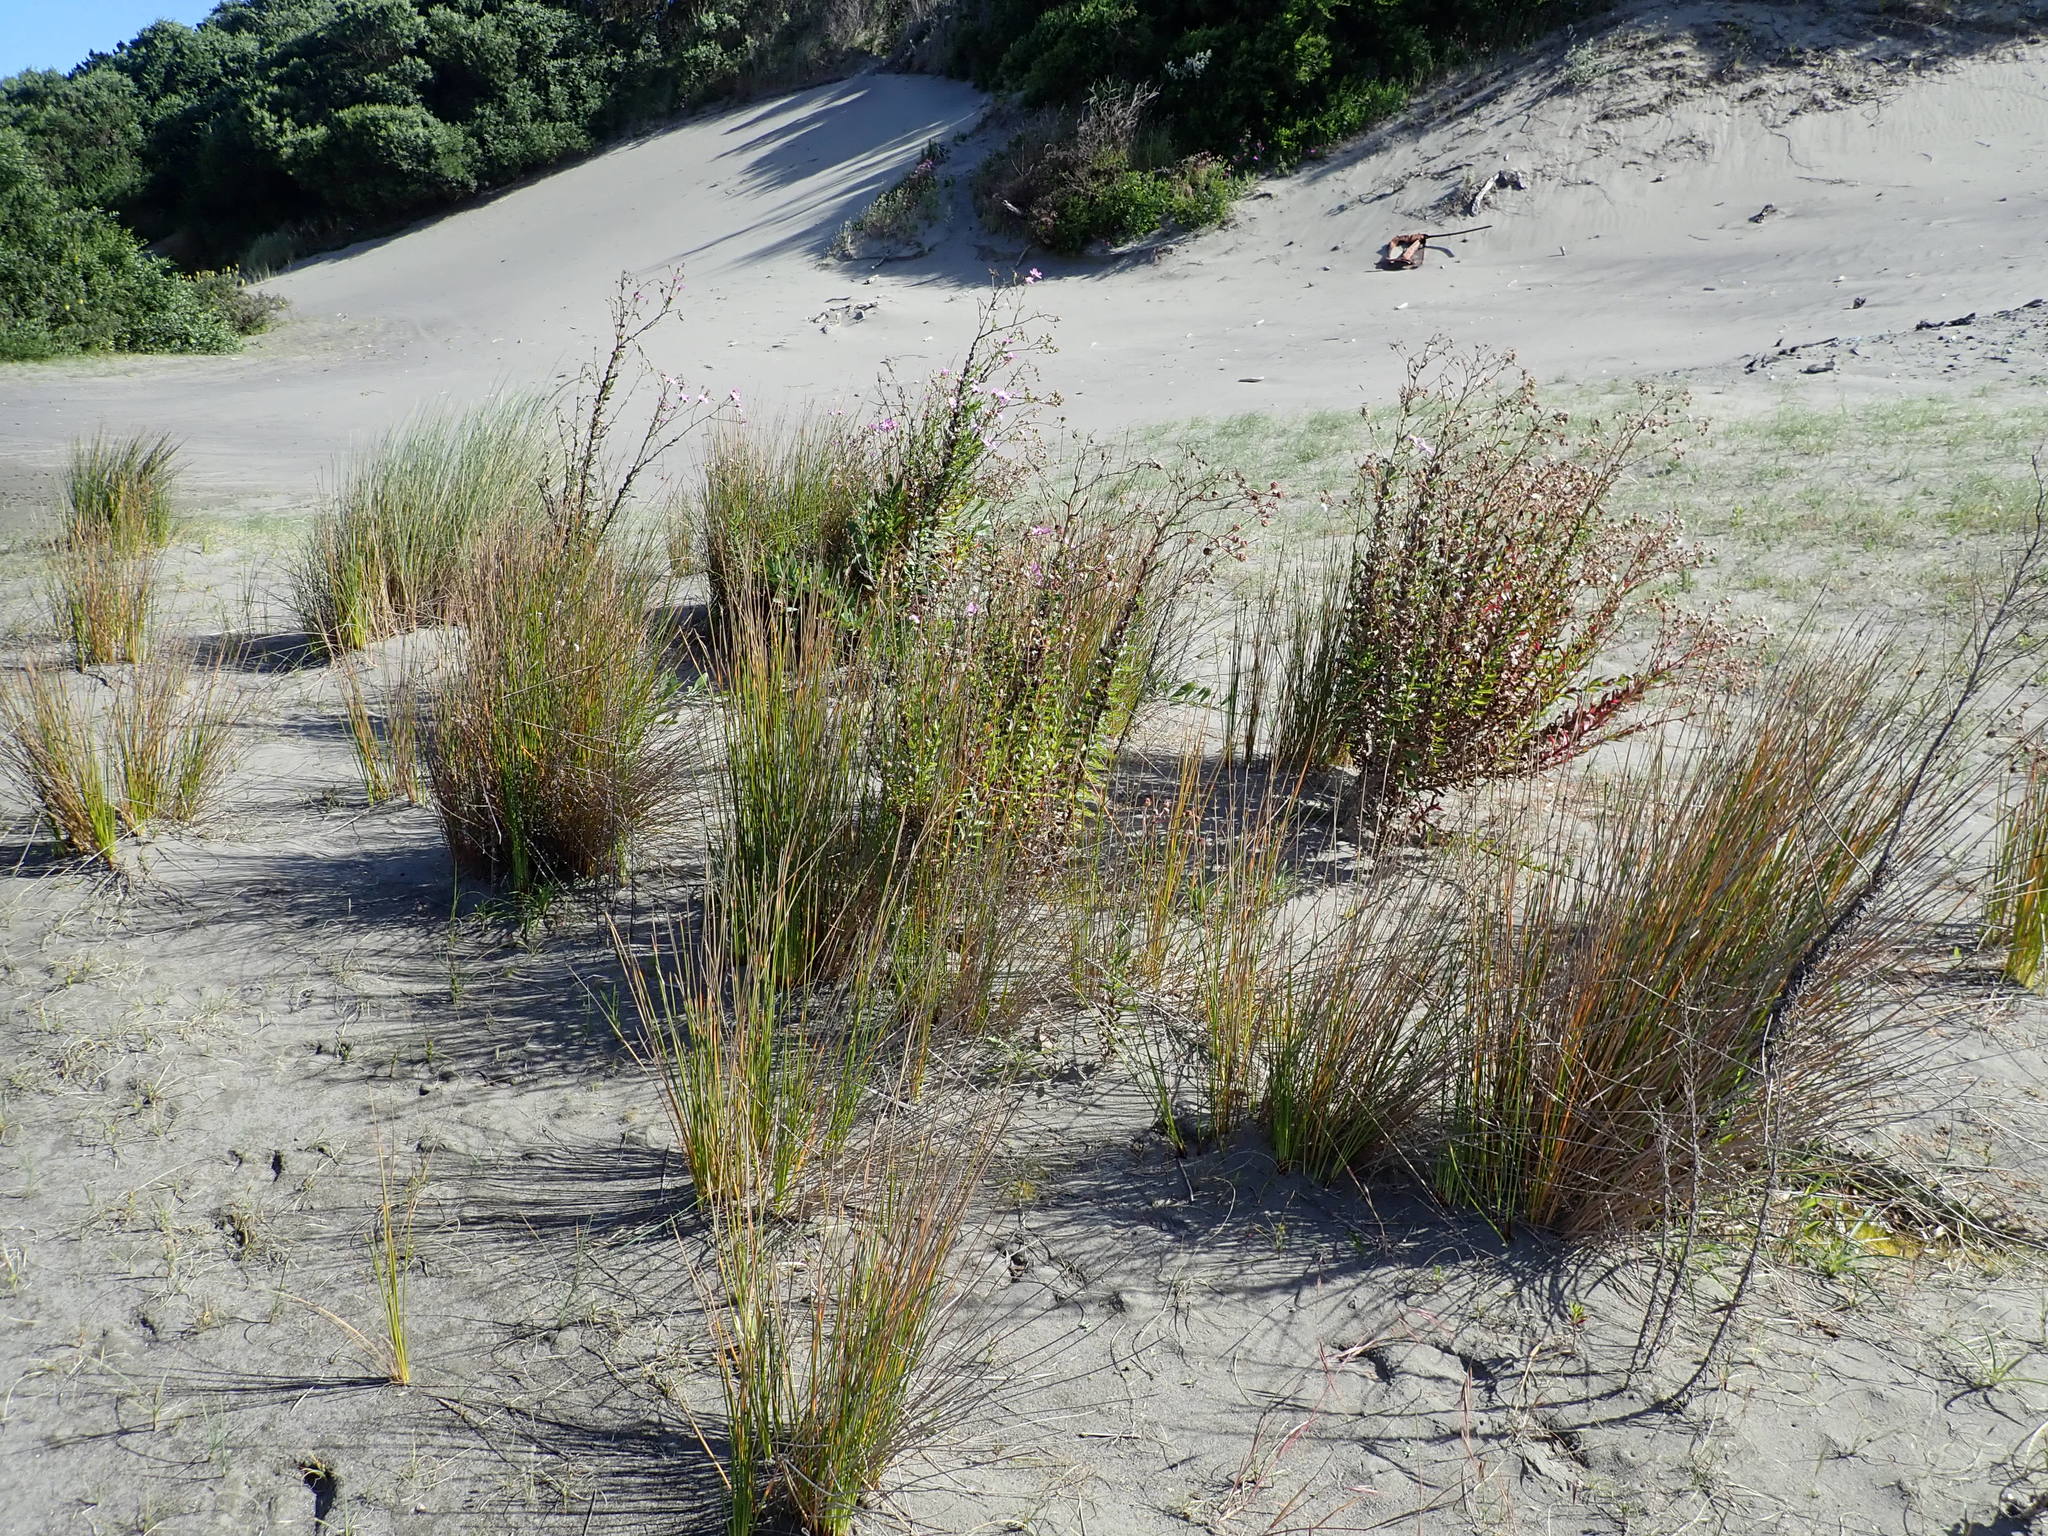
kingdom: Plantae
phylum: Tracheophyta
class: Magnoliopsida
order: Asterales
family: Asteraceae
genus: Senecio
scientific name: Senecio glastifolius
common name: Woad-leaved ragwort
